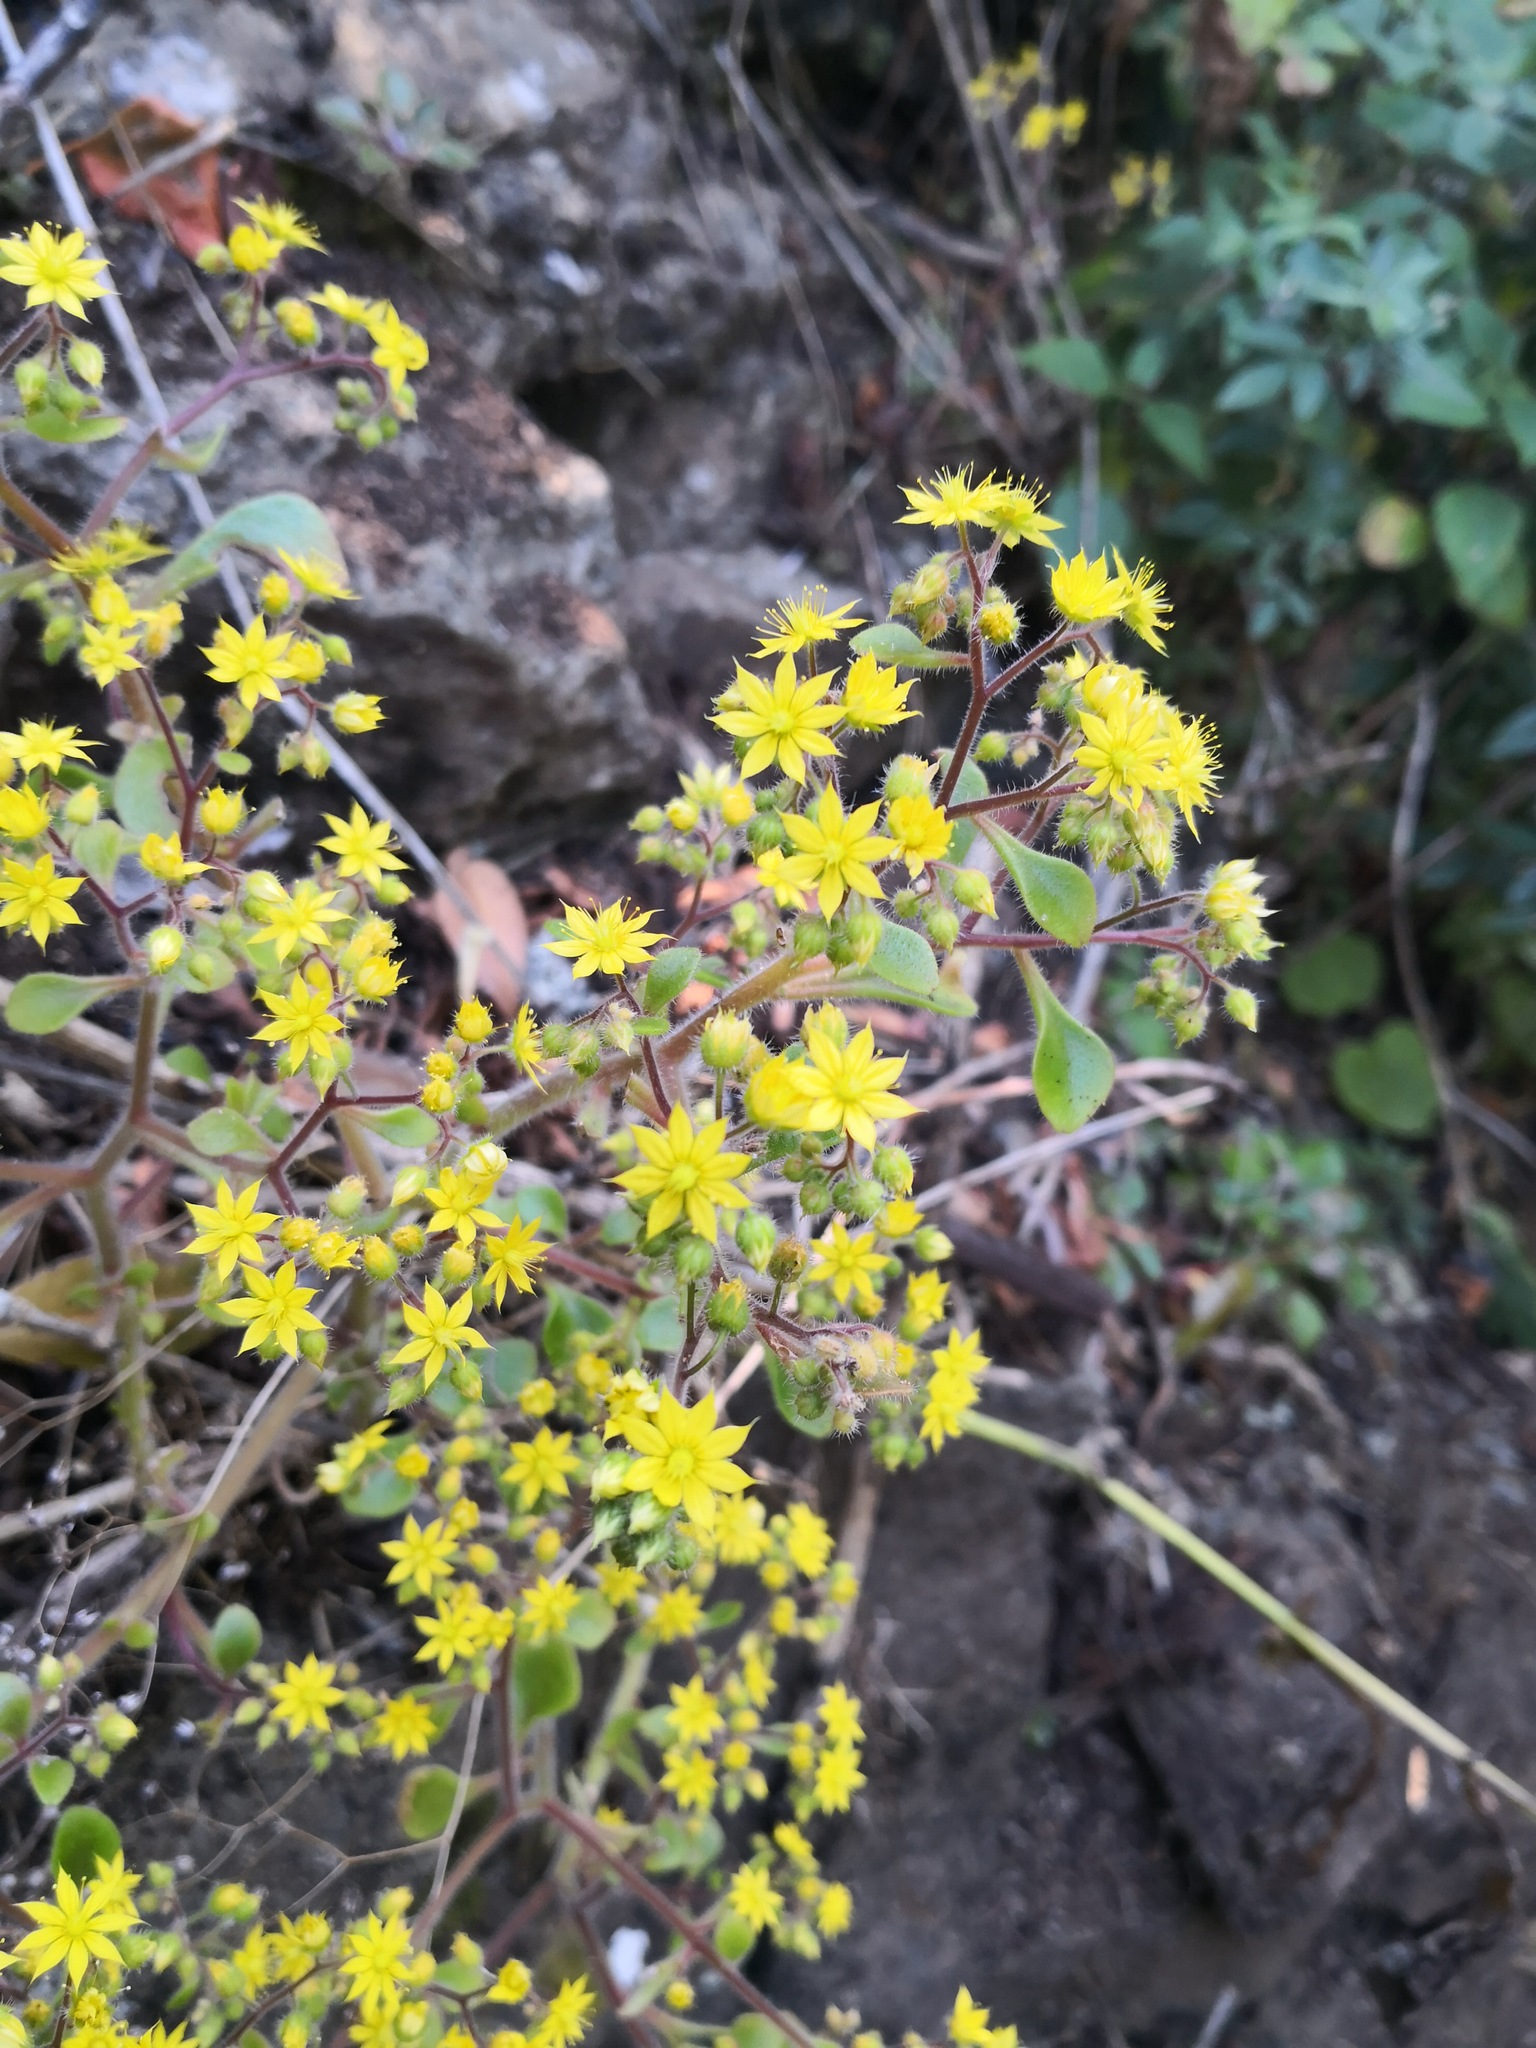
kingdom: Plantae
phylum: Tracheophyta
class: Magnoliopsida
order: Saxifragales
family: Crassulaceae
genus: Aichryson
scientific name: Aichryson laxum
